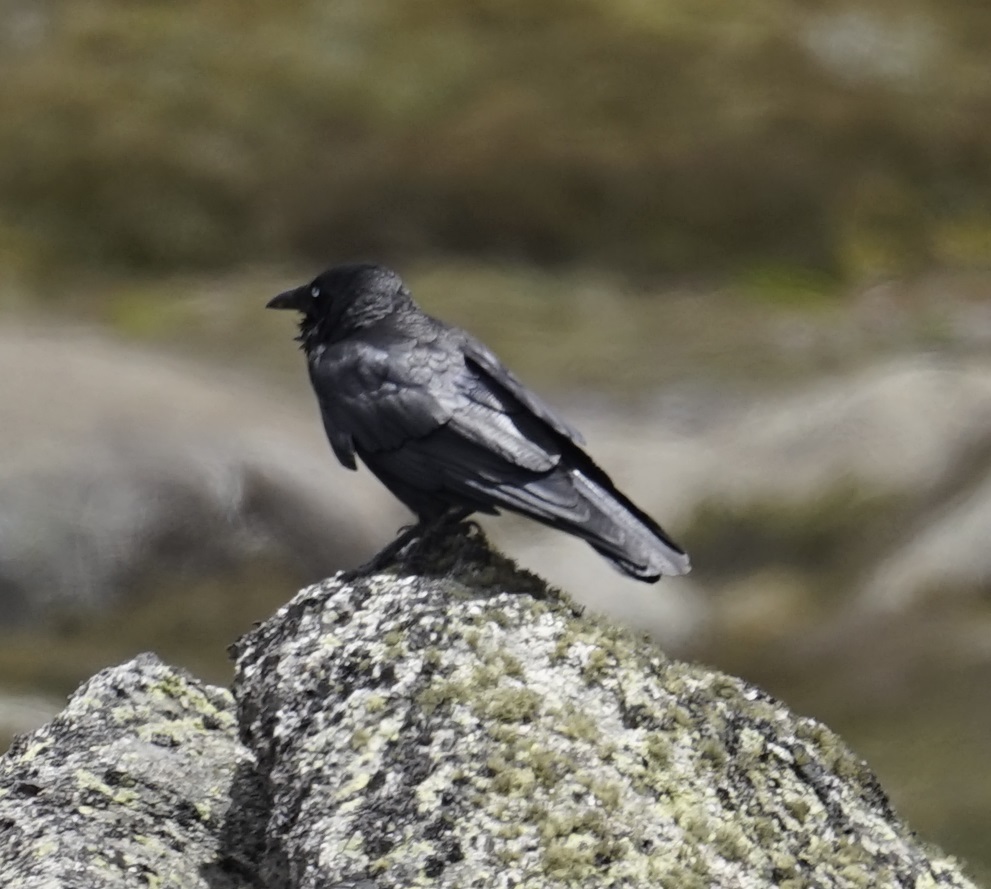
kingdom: Animalia
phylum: Chordata
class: Aves
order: Passeriformes
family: Corvidae
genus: Corvus
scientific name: Corvus mellori
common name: Little raven
